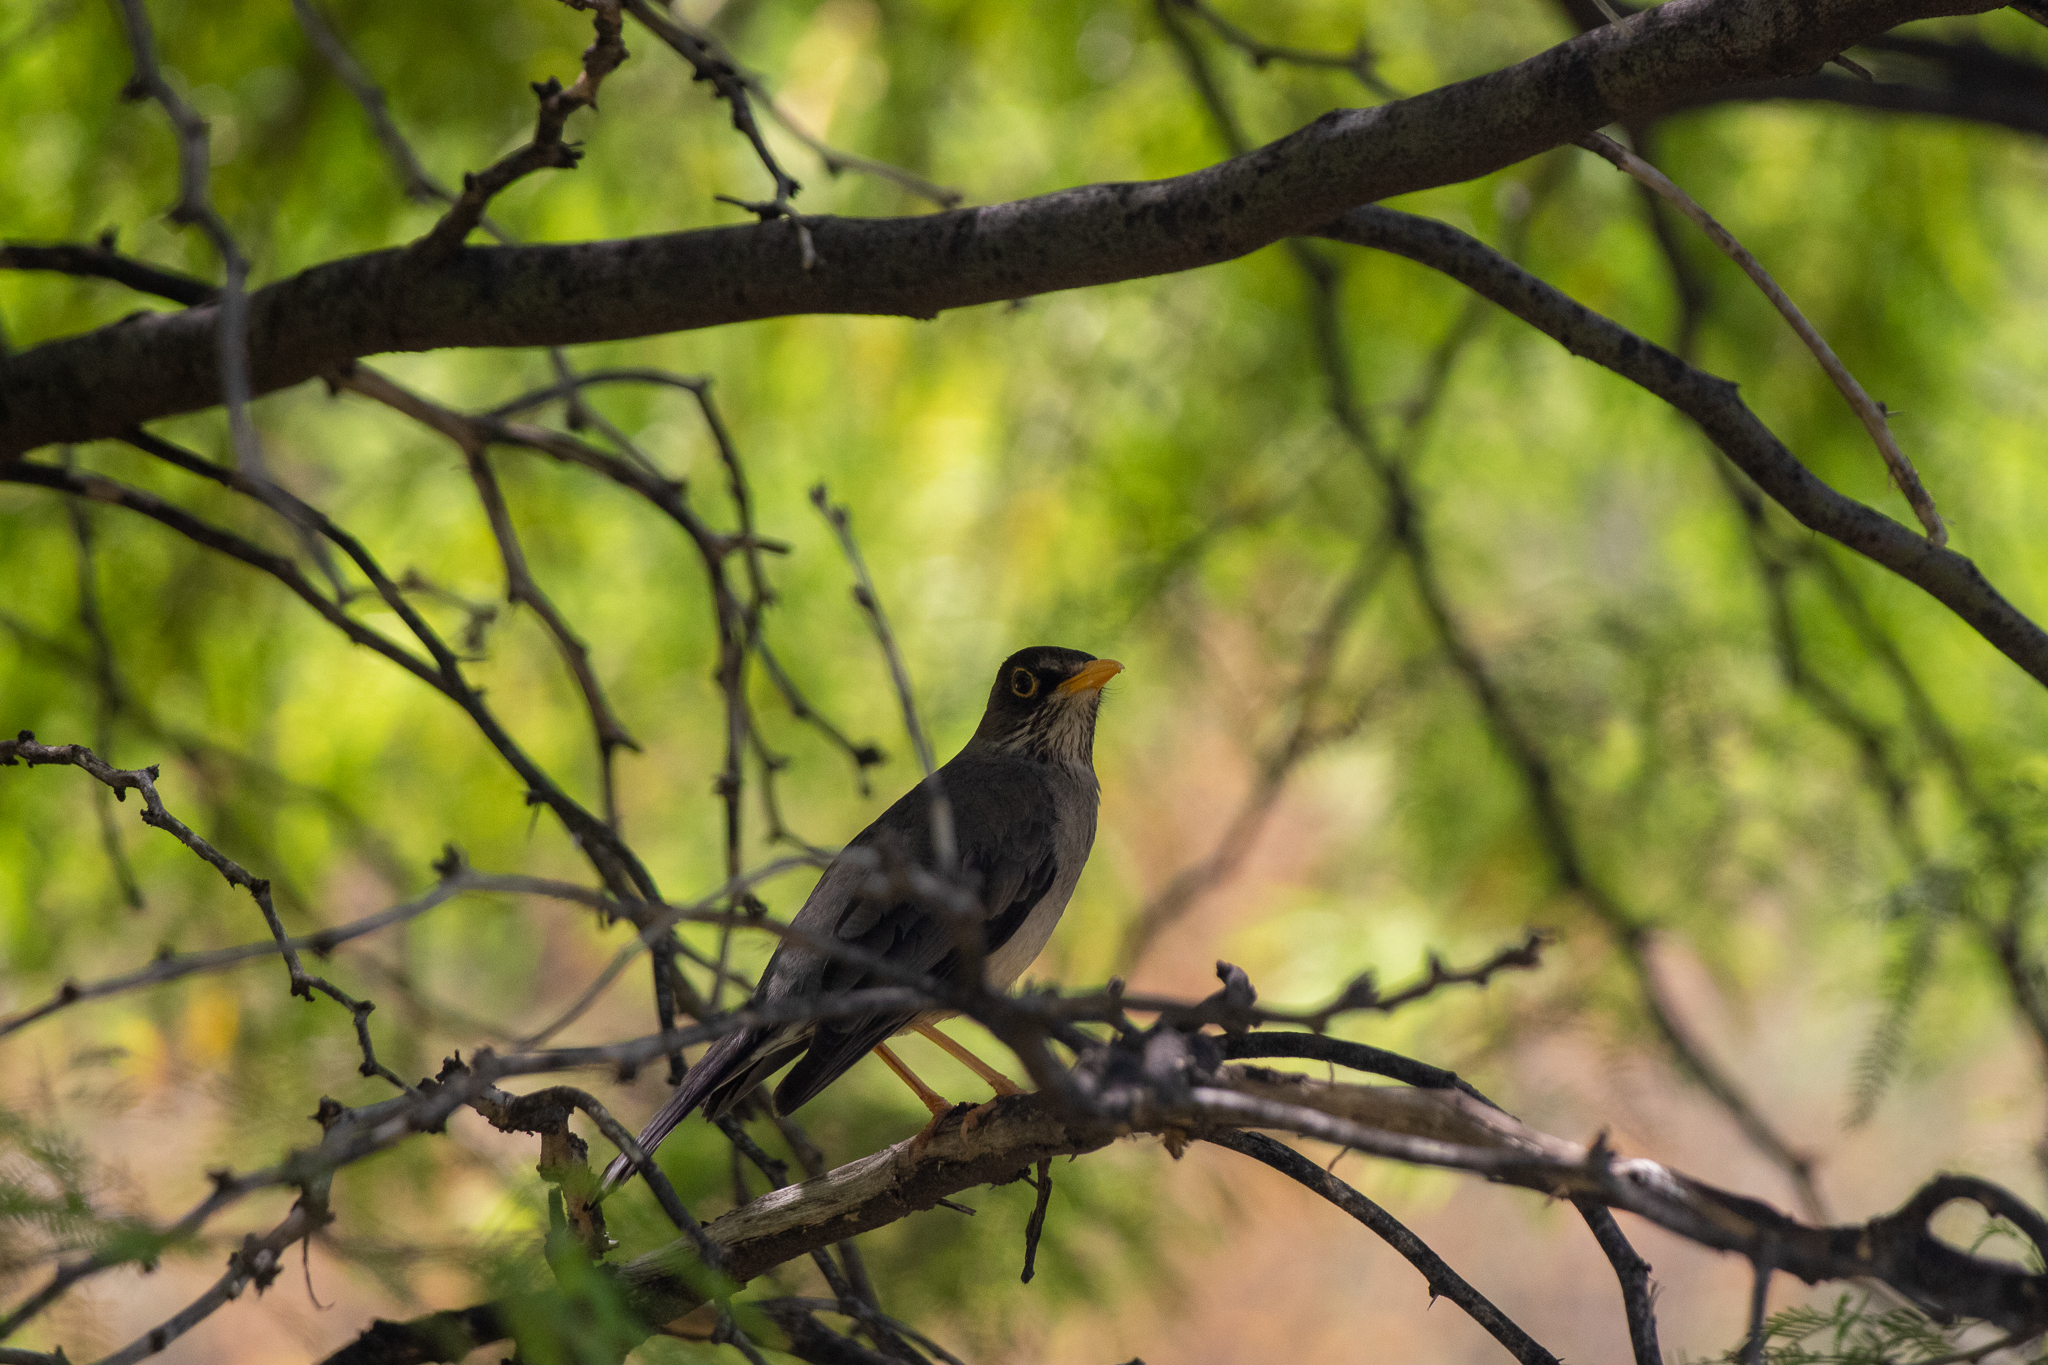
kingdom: Animalia
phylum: Chordata
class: Aves
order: Passeriformes
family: Turdidae
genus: Turdus
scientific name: Turdus falcklandii
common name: Austral thrush
